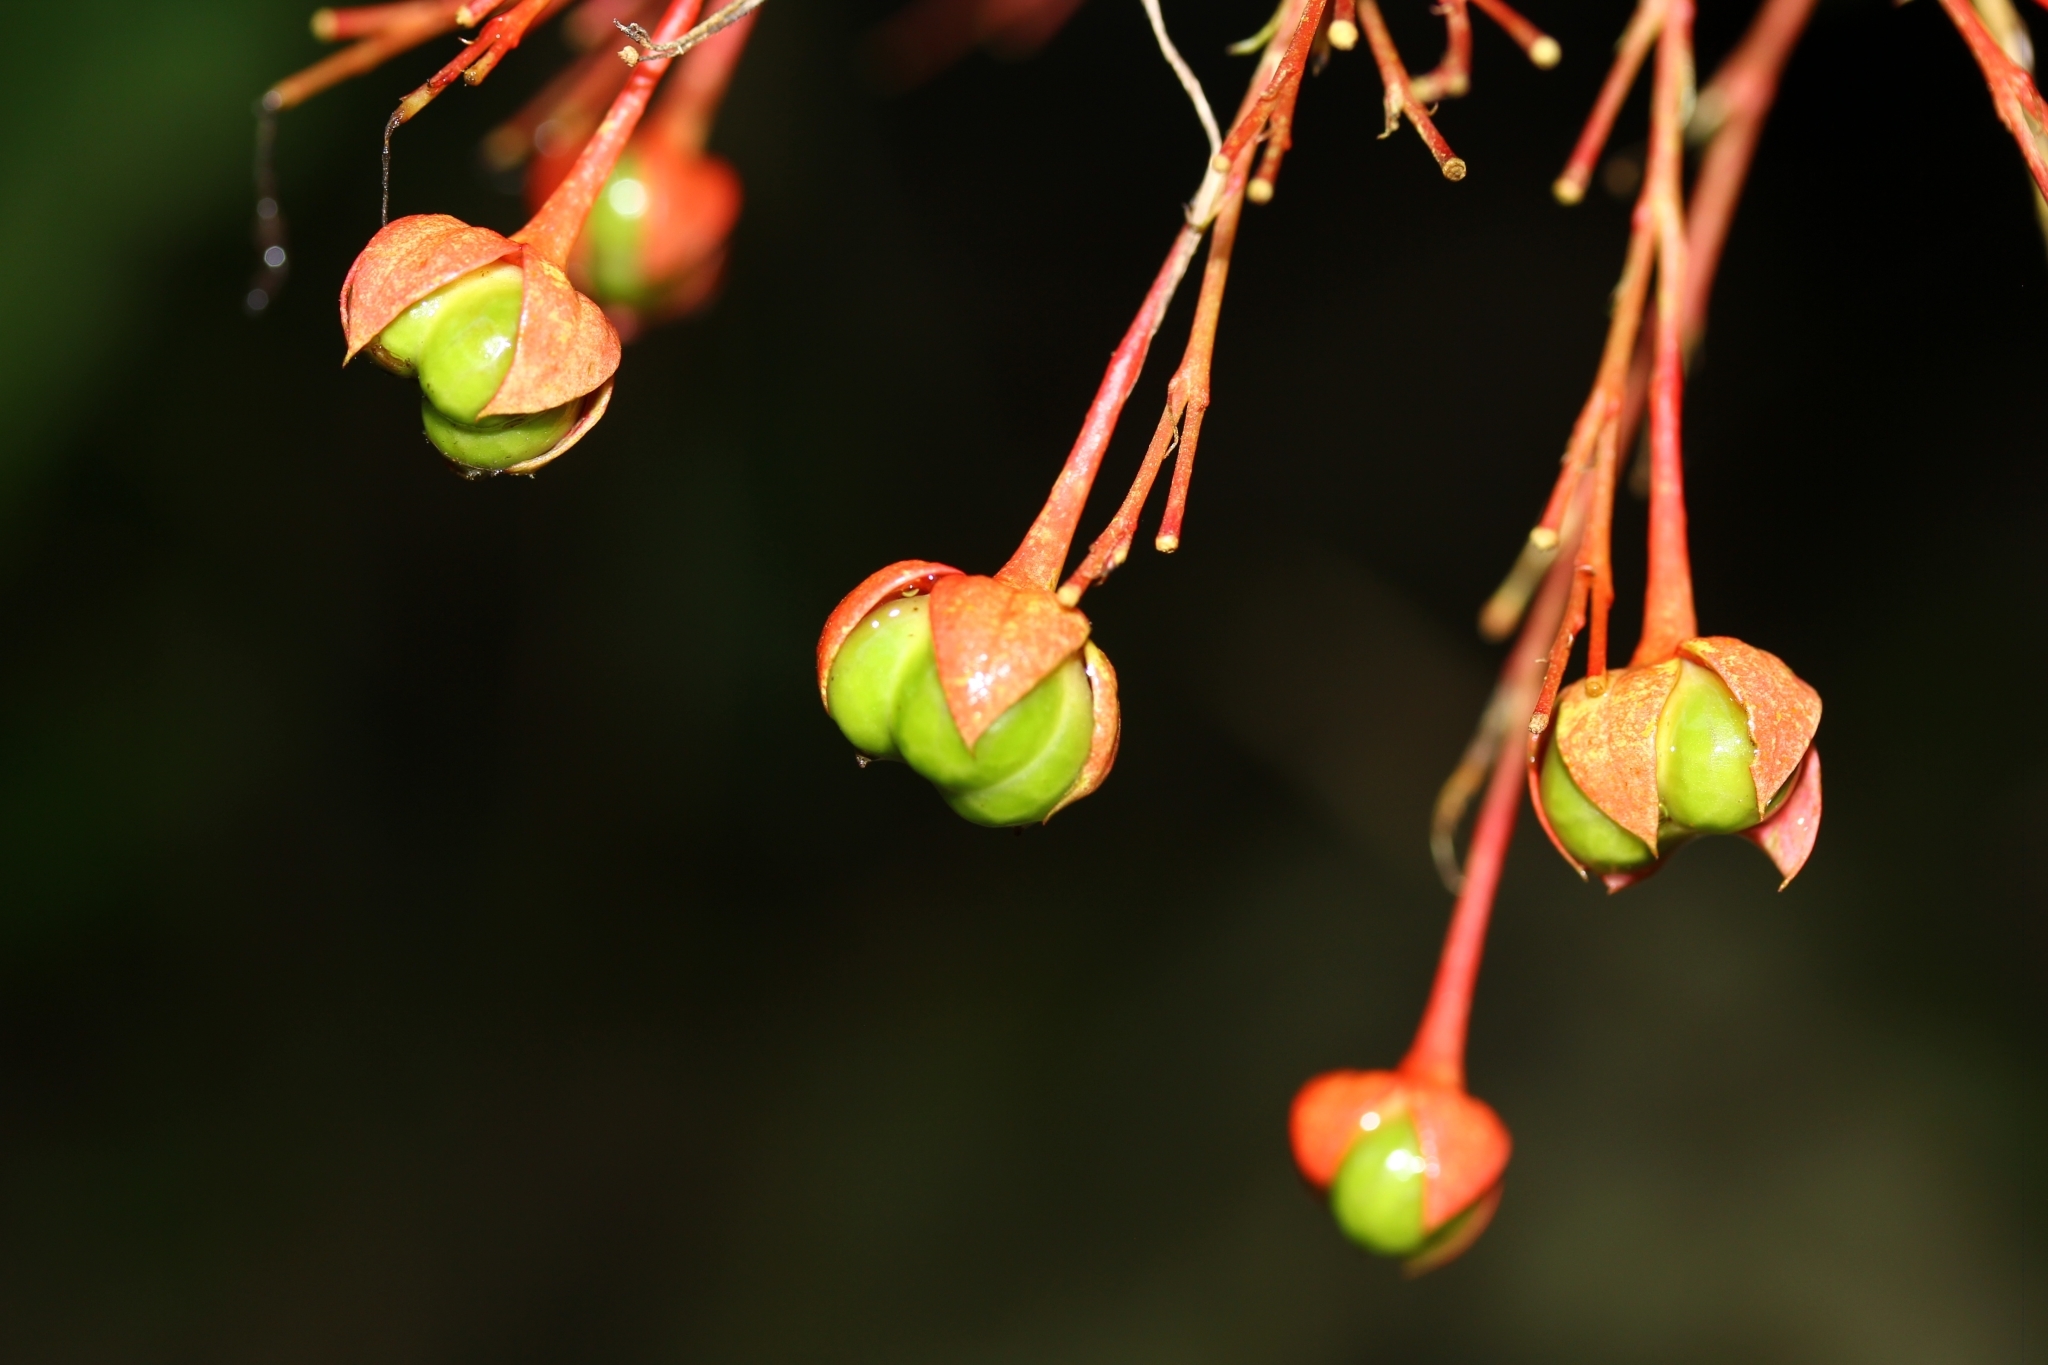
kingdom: Plantae
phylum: Tracheophyta
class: Magnoliopsida
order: Lamiales
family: Lamiaceae
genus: Clerodendrum
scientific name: Clerodendrum japonicum
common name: Japanese glorybower
